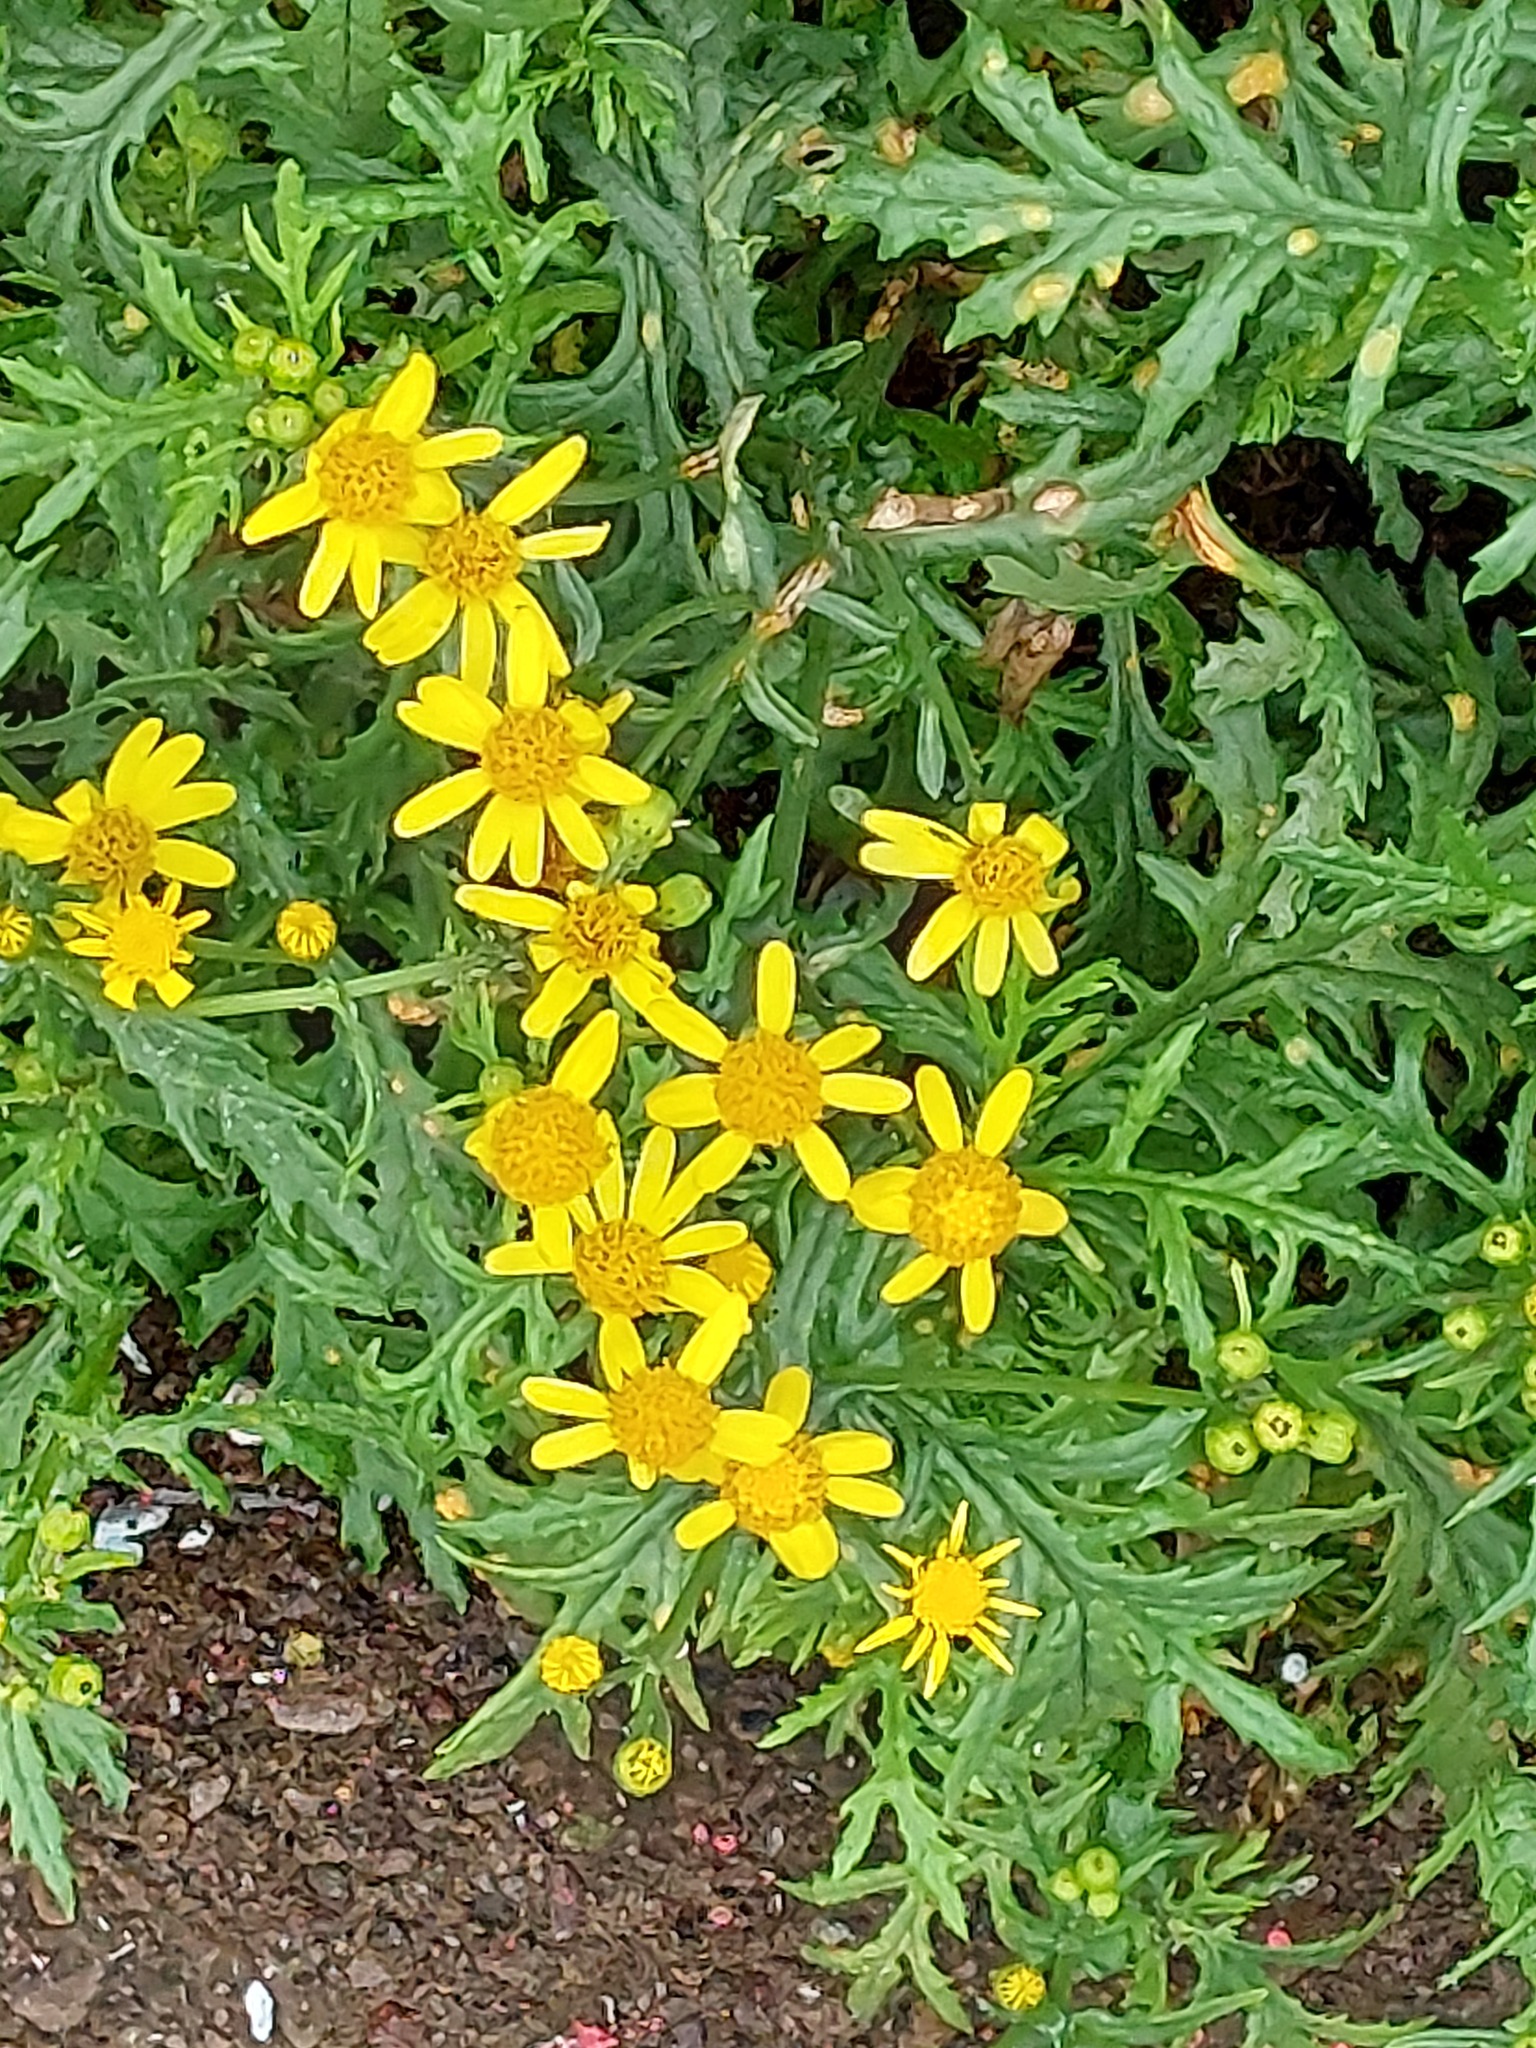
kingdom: Plantae
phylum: Tracheophyta
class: Magnoliopsida
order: Asterales
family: Asteraceae
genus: Senecio
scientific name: Senecio squalidus
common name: Oxford ragwort
